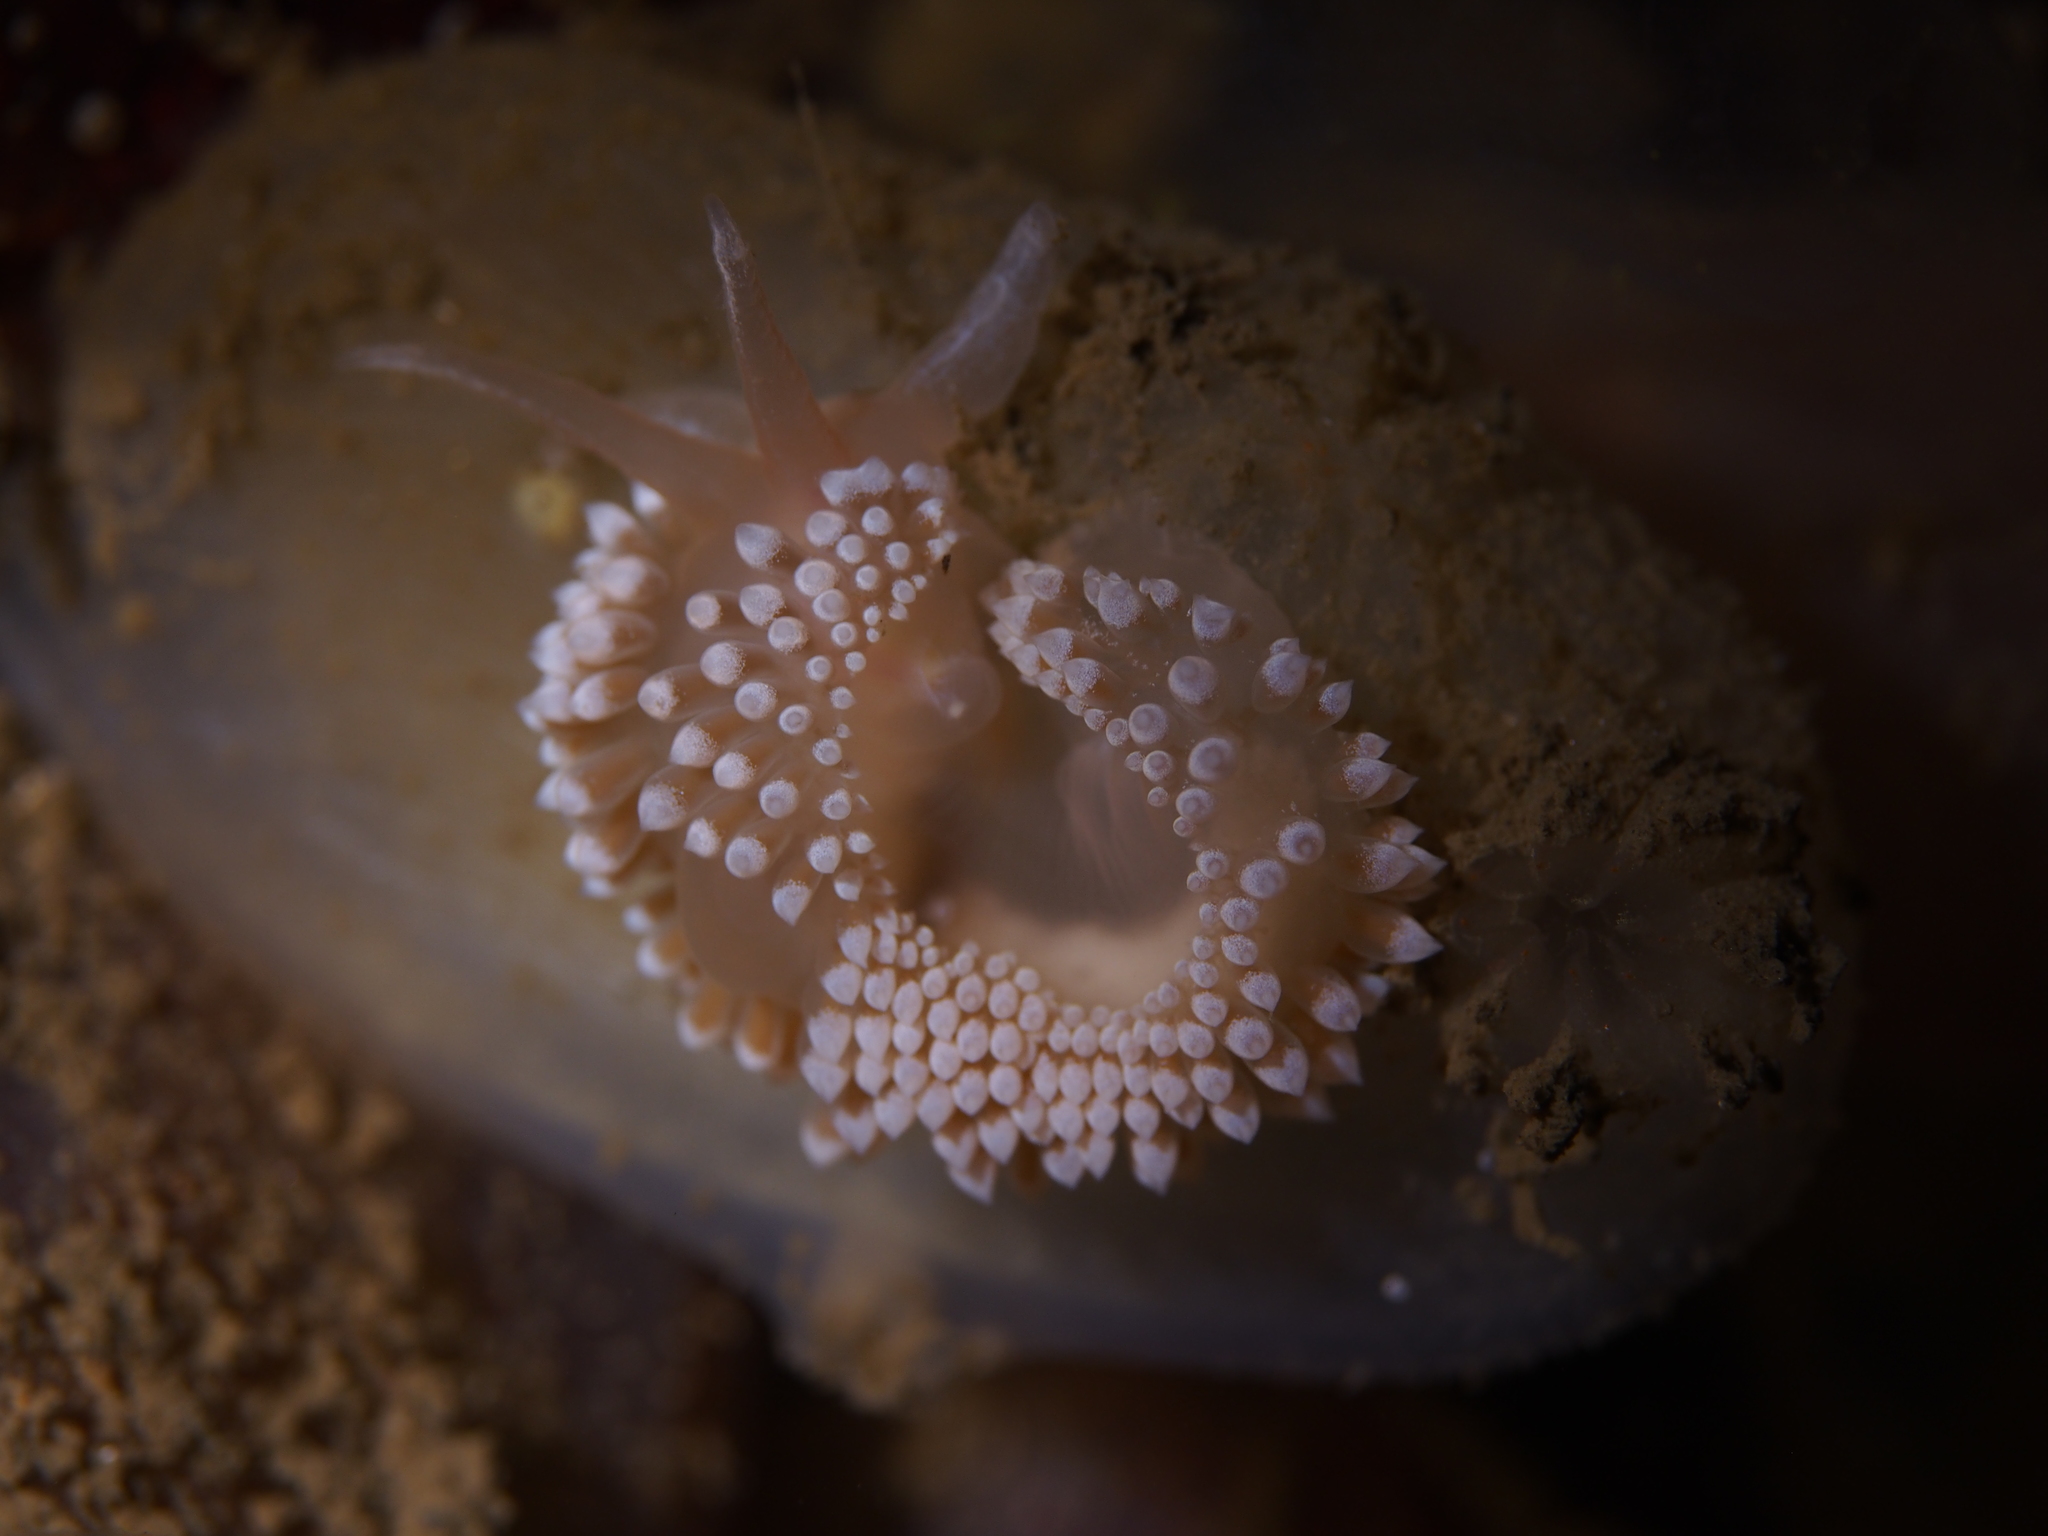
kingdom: Animalia
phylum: Mollusca
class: Gastropoda
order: Nudibranchia
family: Coryphellidae
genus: Coryphella
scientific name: Coryphella verrucosa
